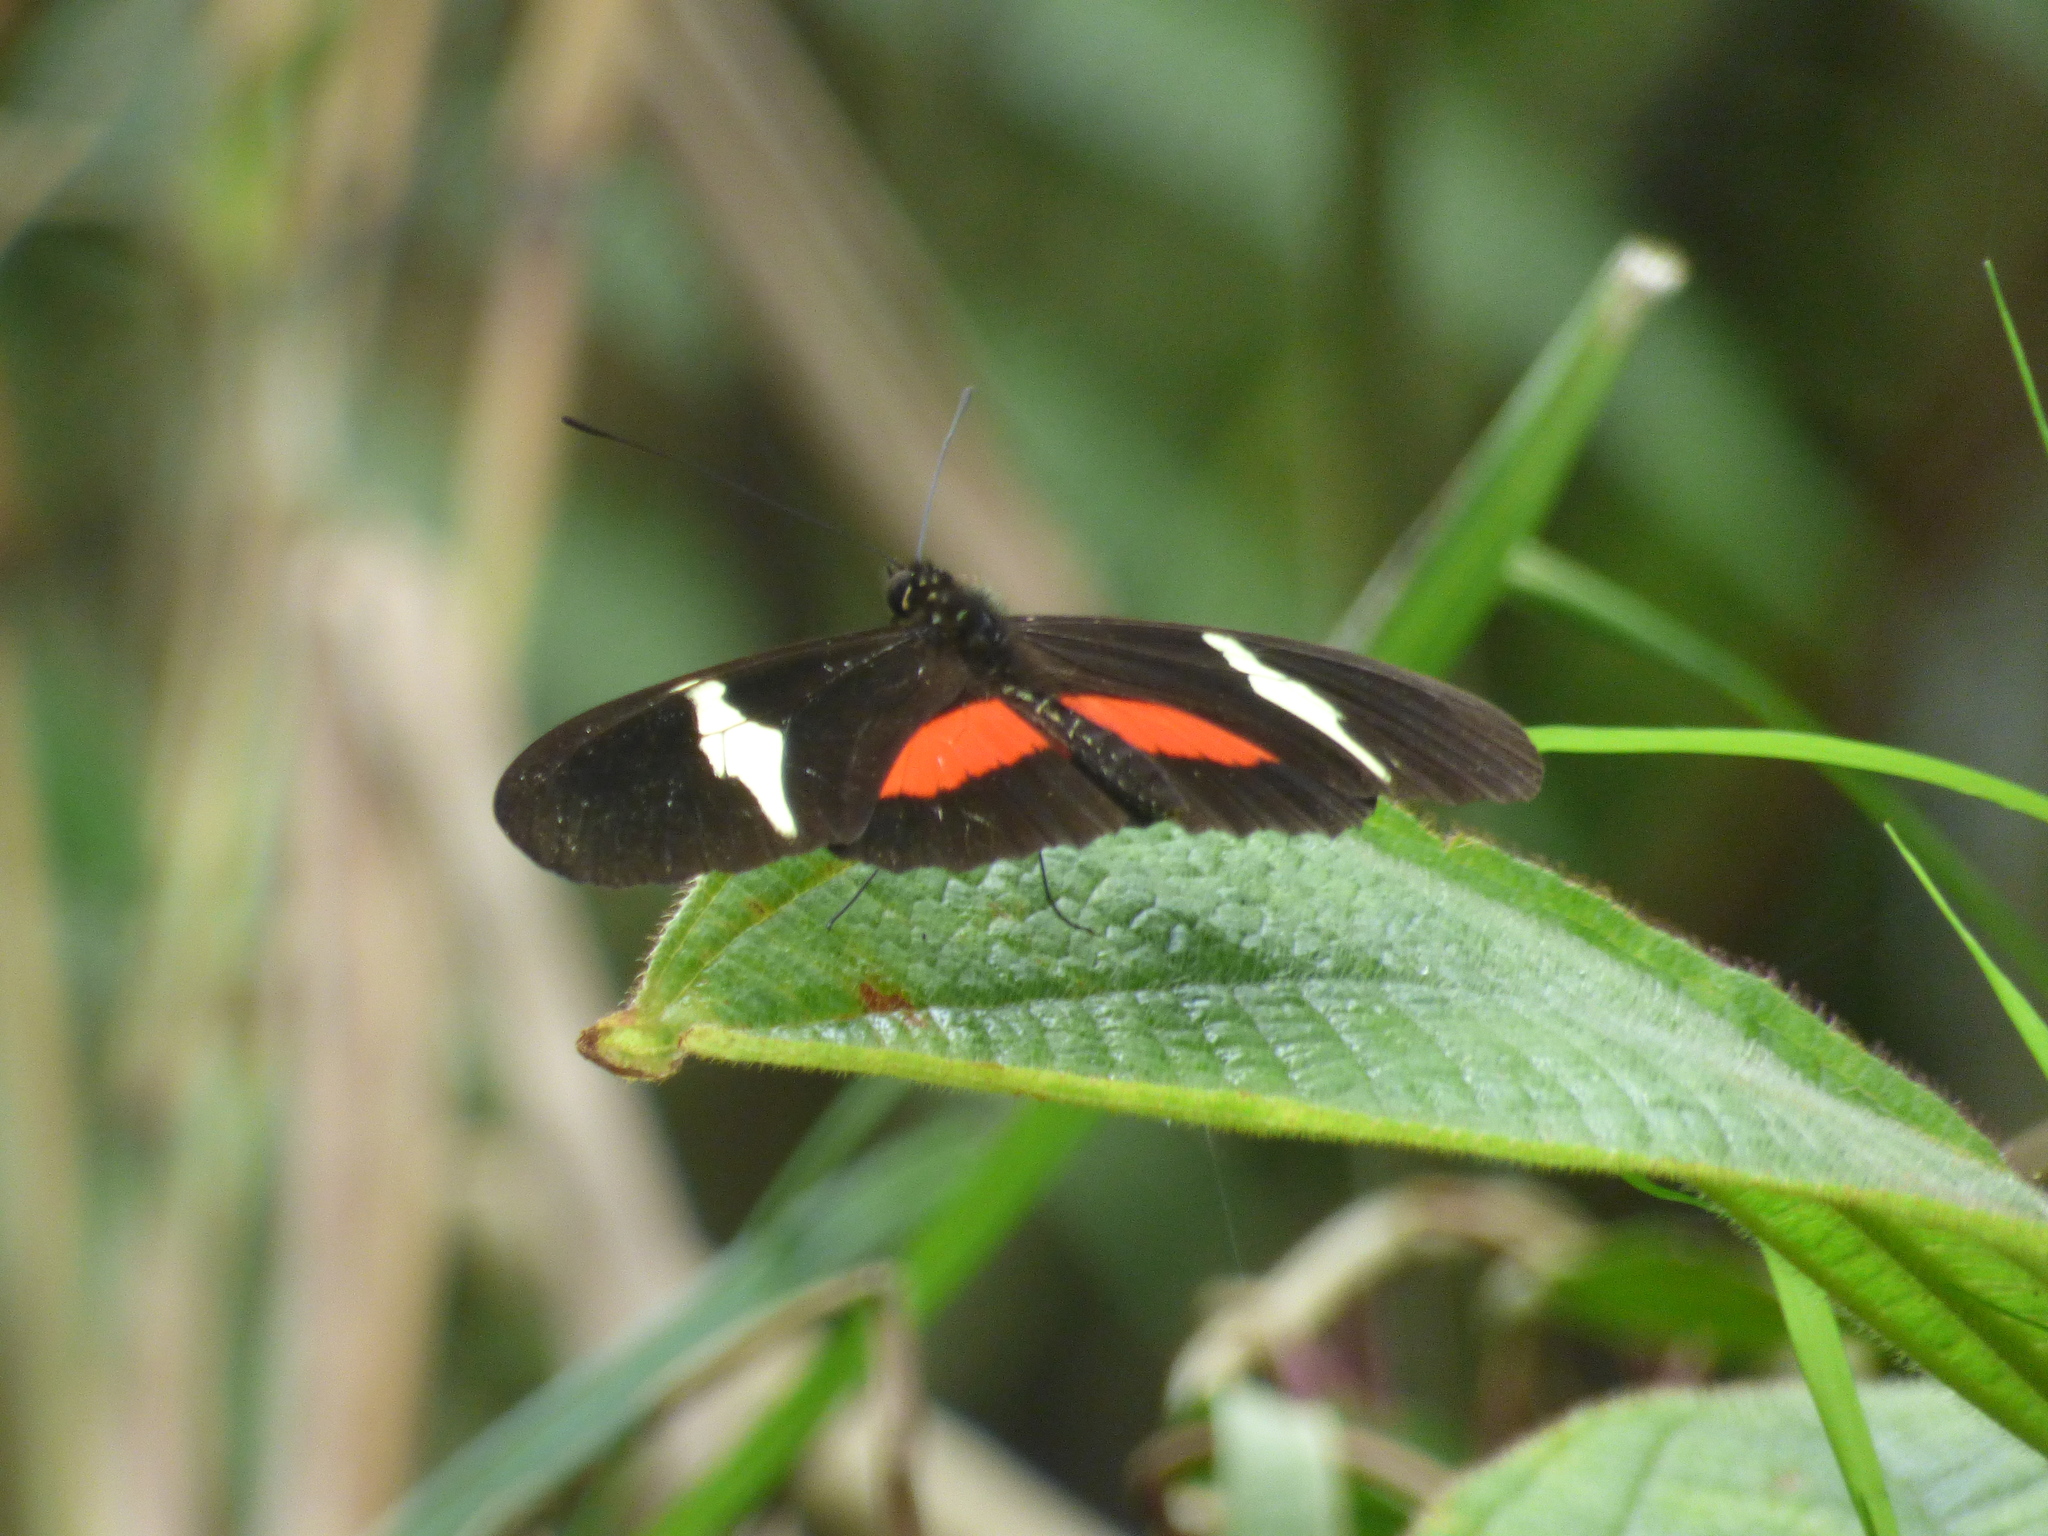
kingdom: Animalia
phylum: Arthropoda
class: Insecta
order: Lepidoptera
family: Nymphalidae
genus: Heliconius
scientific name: Heliconius clysonymus
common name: Clysonymus longwing
